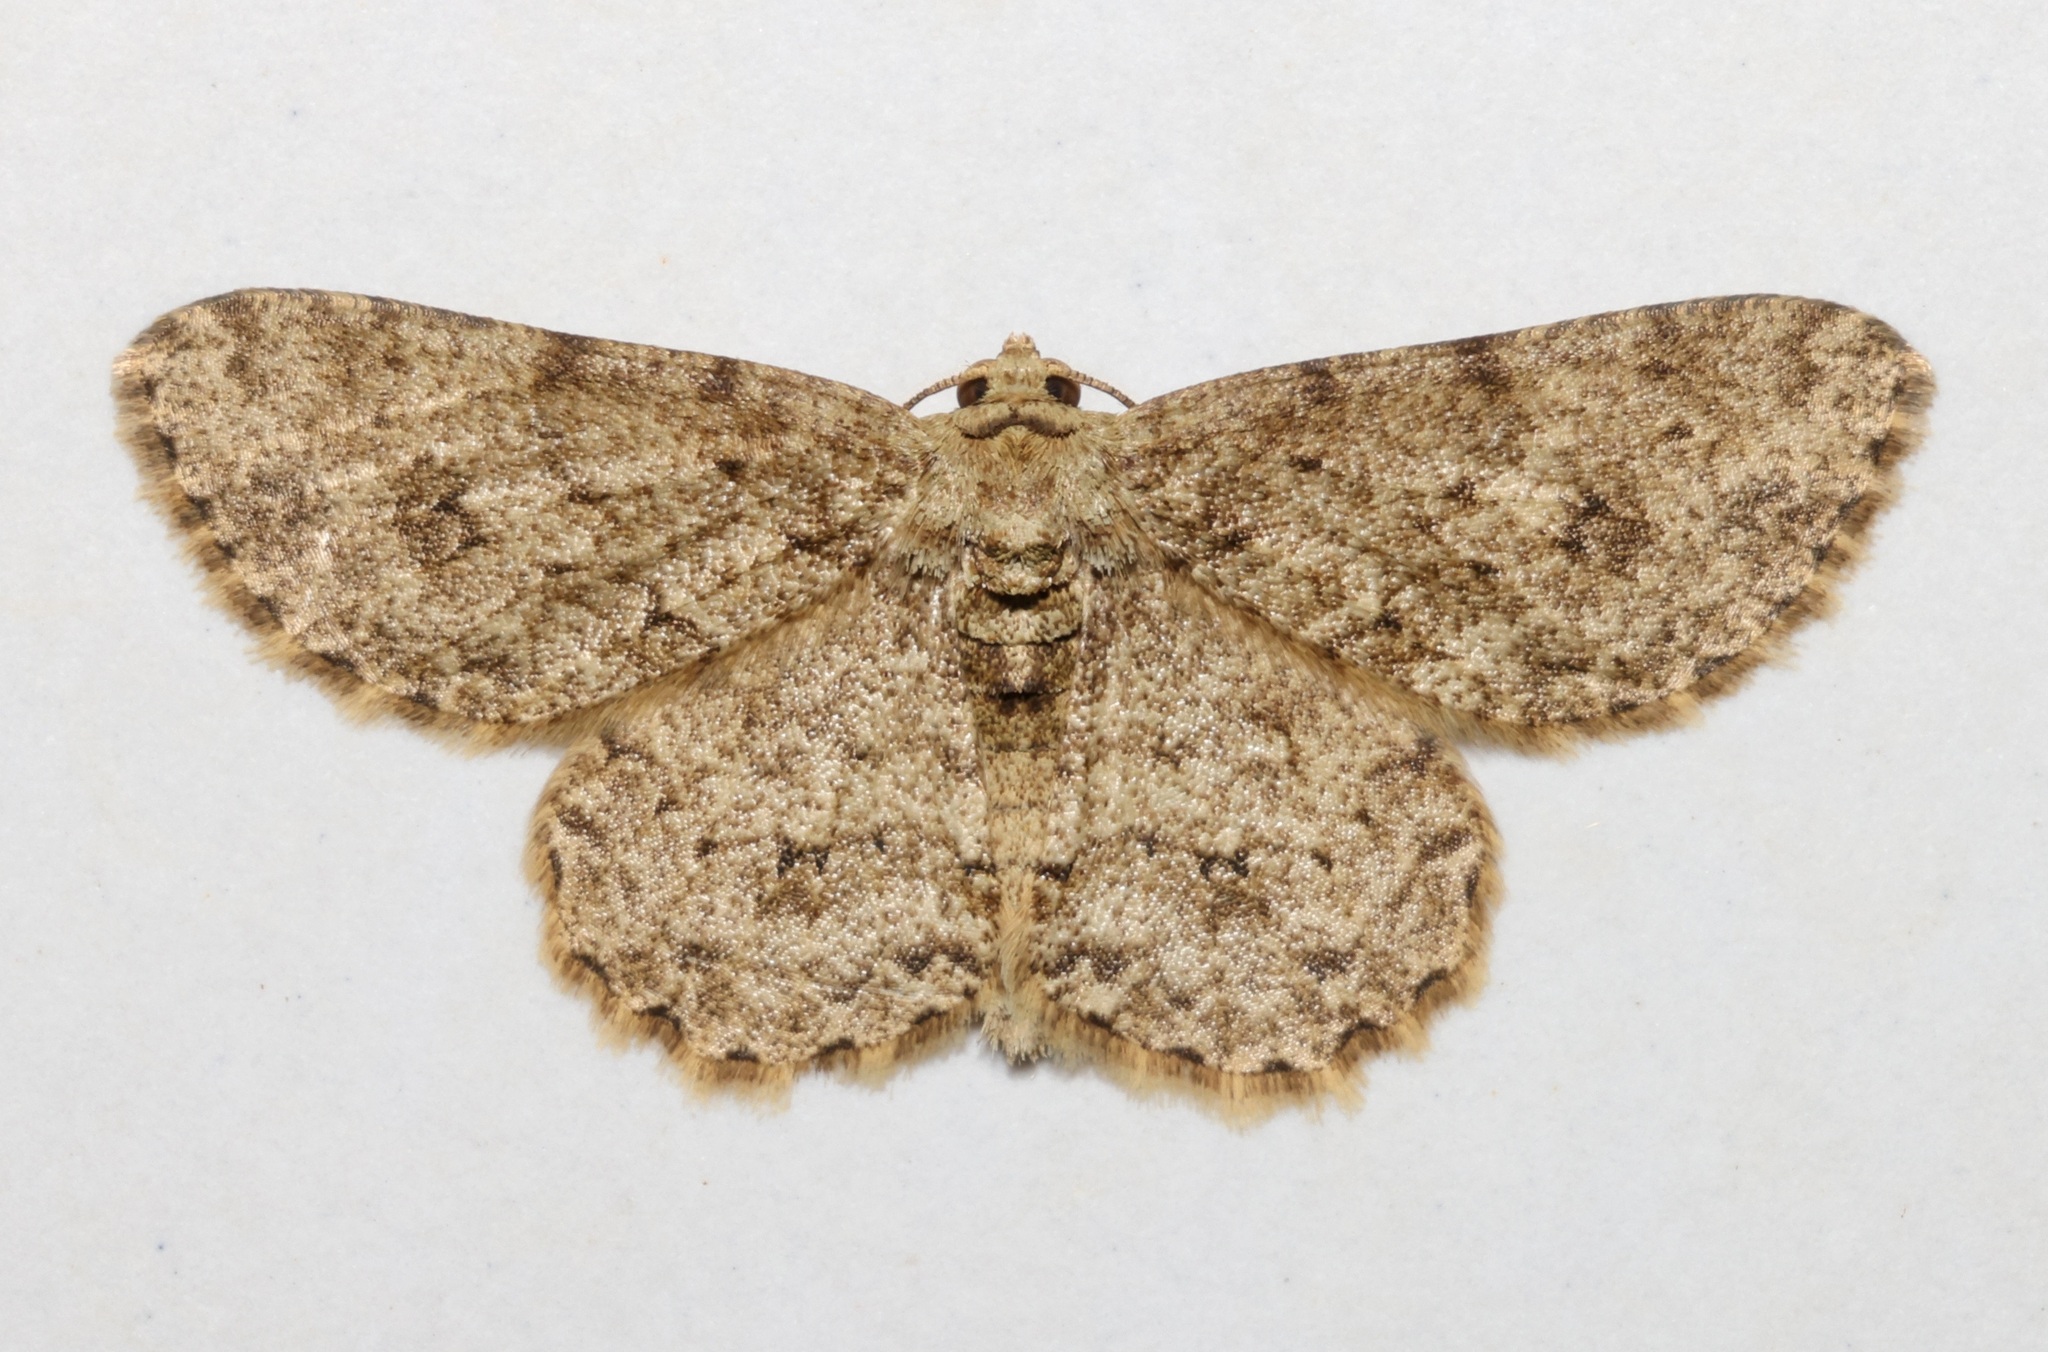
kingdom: Animalia
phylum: Arthropoda
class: Insecta
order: Lepidoptera
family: Geometridae
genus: Ectropis
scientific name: Ectropis bhurmitra
